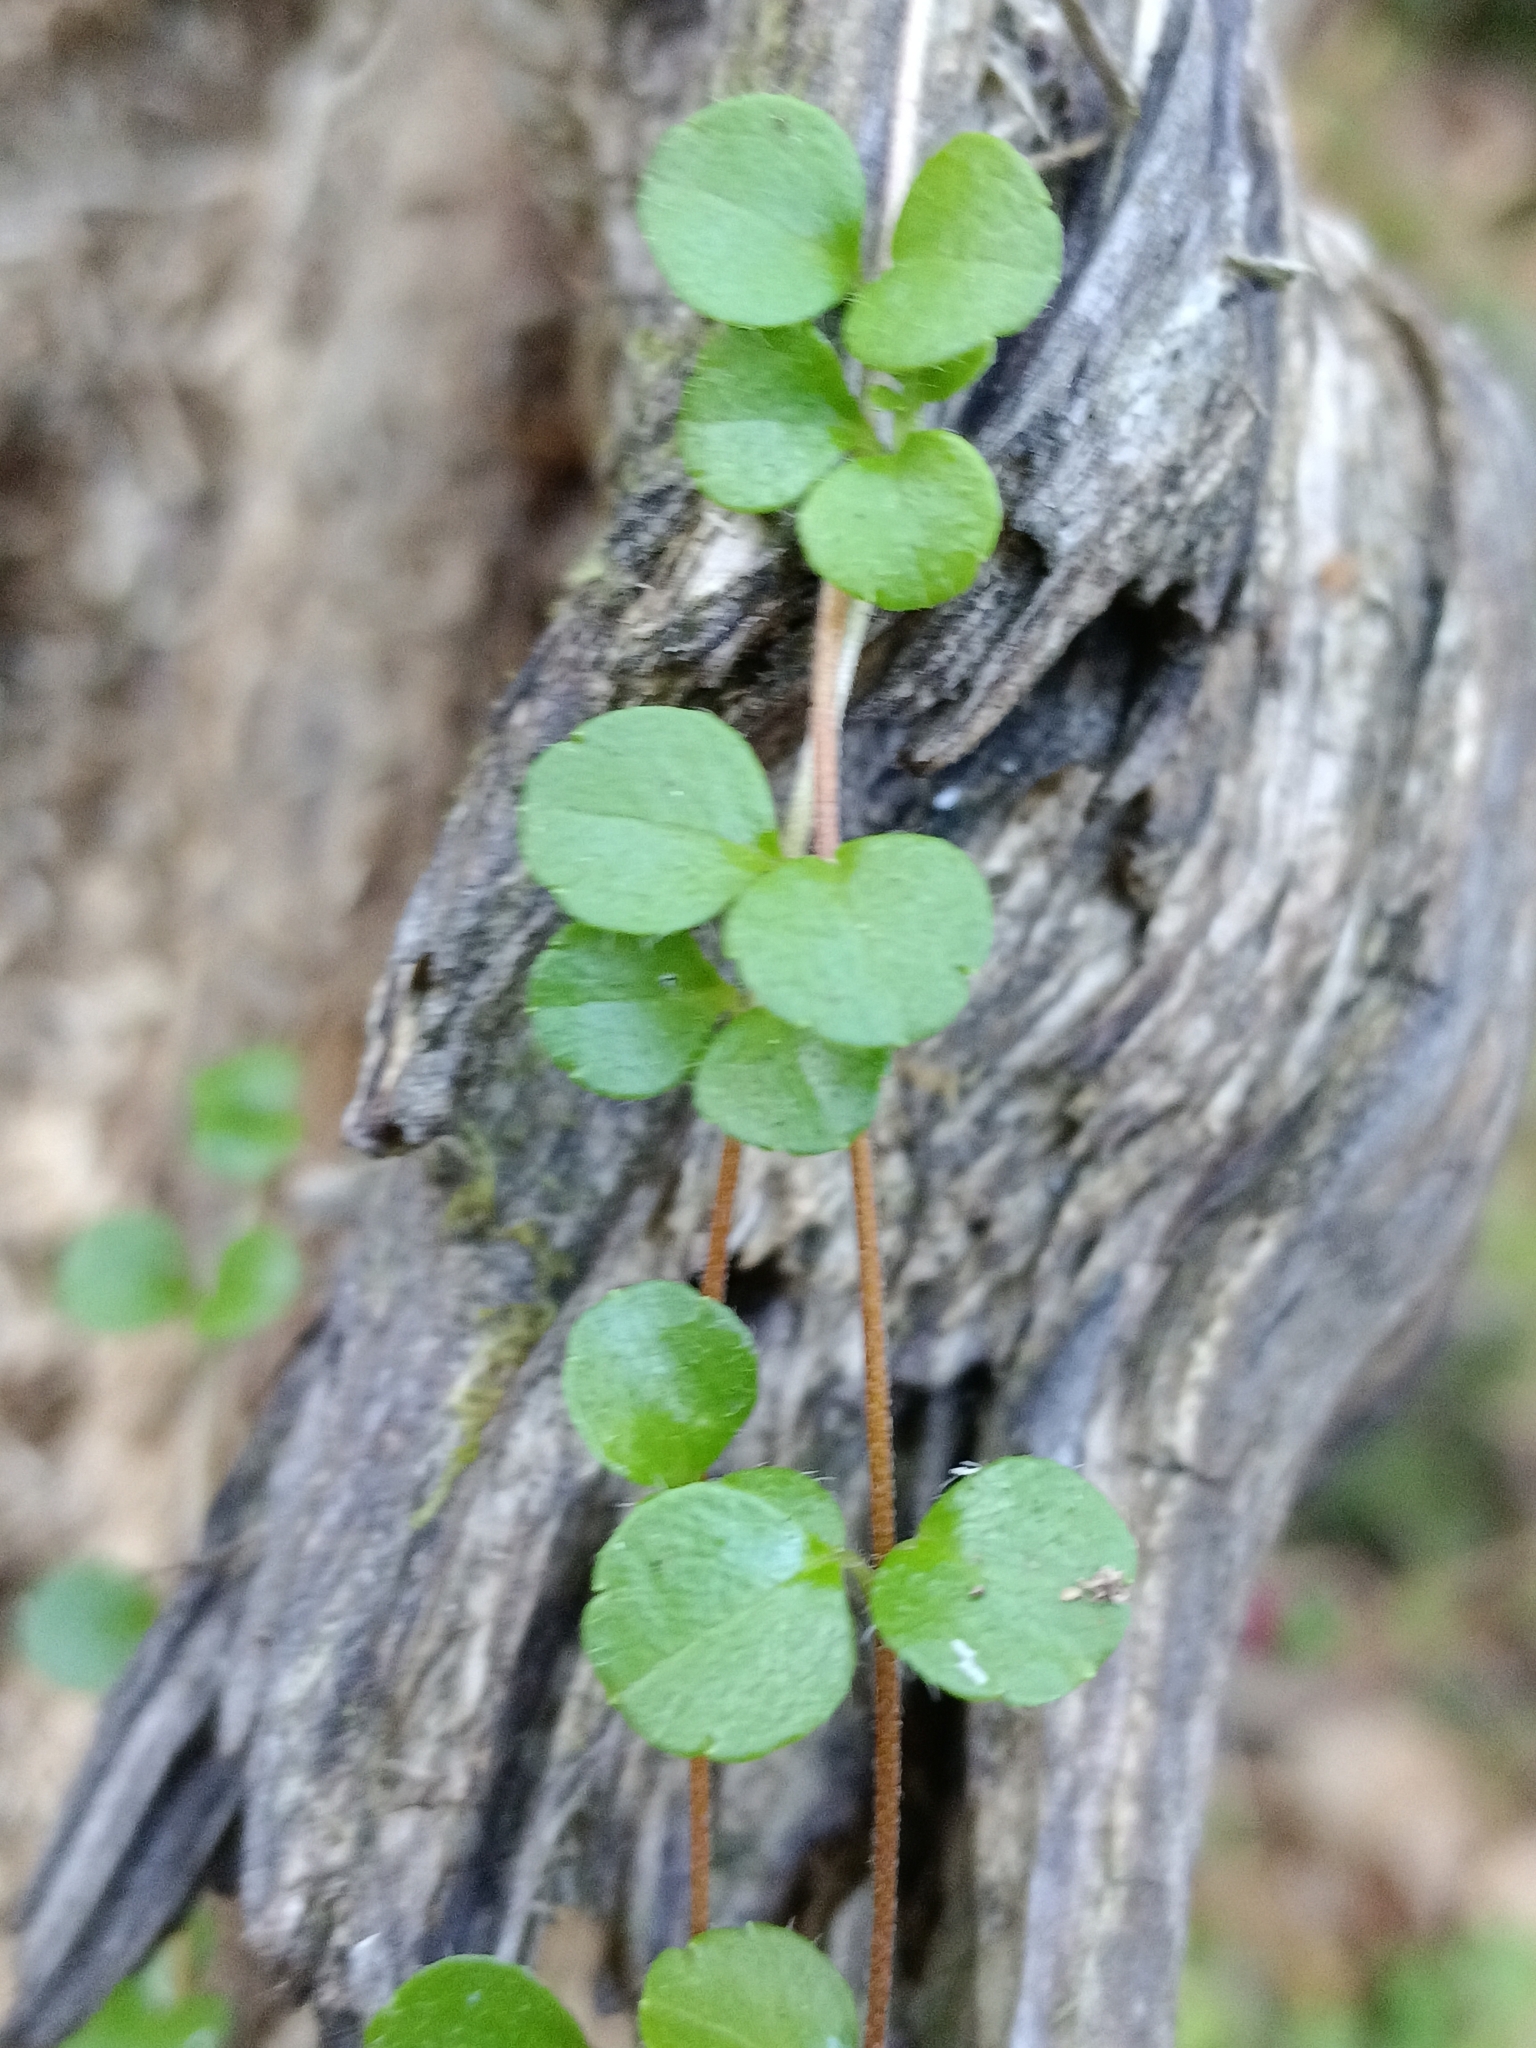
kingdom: Plantae
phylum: Tracheophyta
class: Magnoliopsida
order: Dipsacales
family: Caprifoliaceae
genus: Linnaea
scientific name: Linnaea borealis
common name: Twinflower
